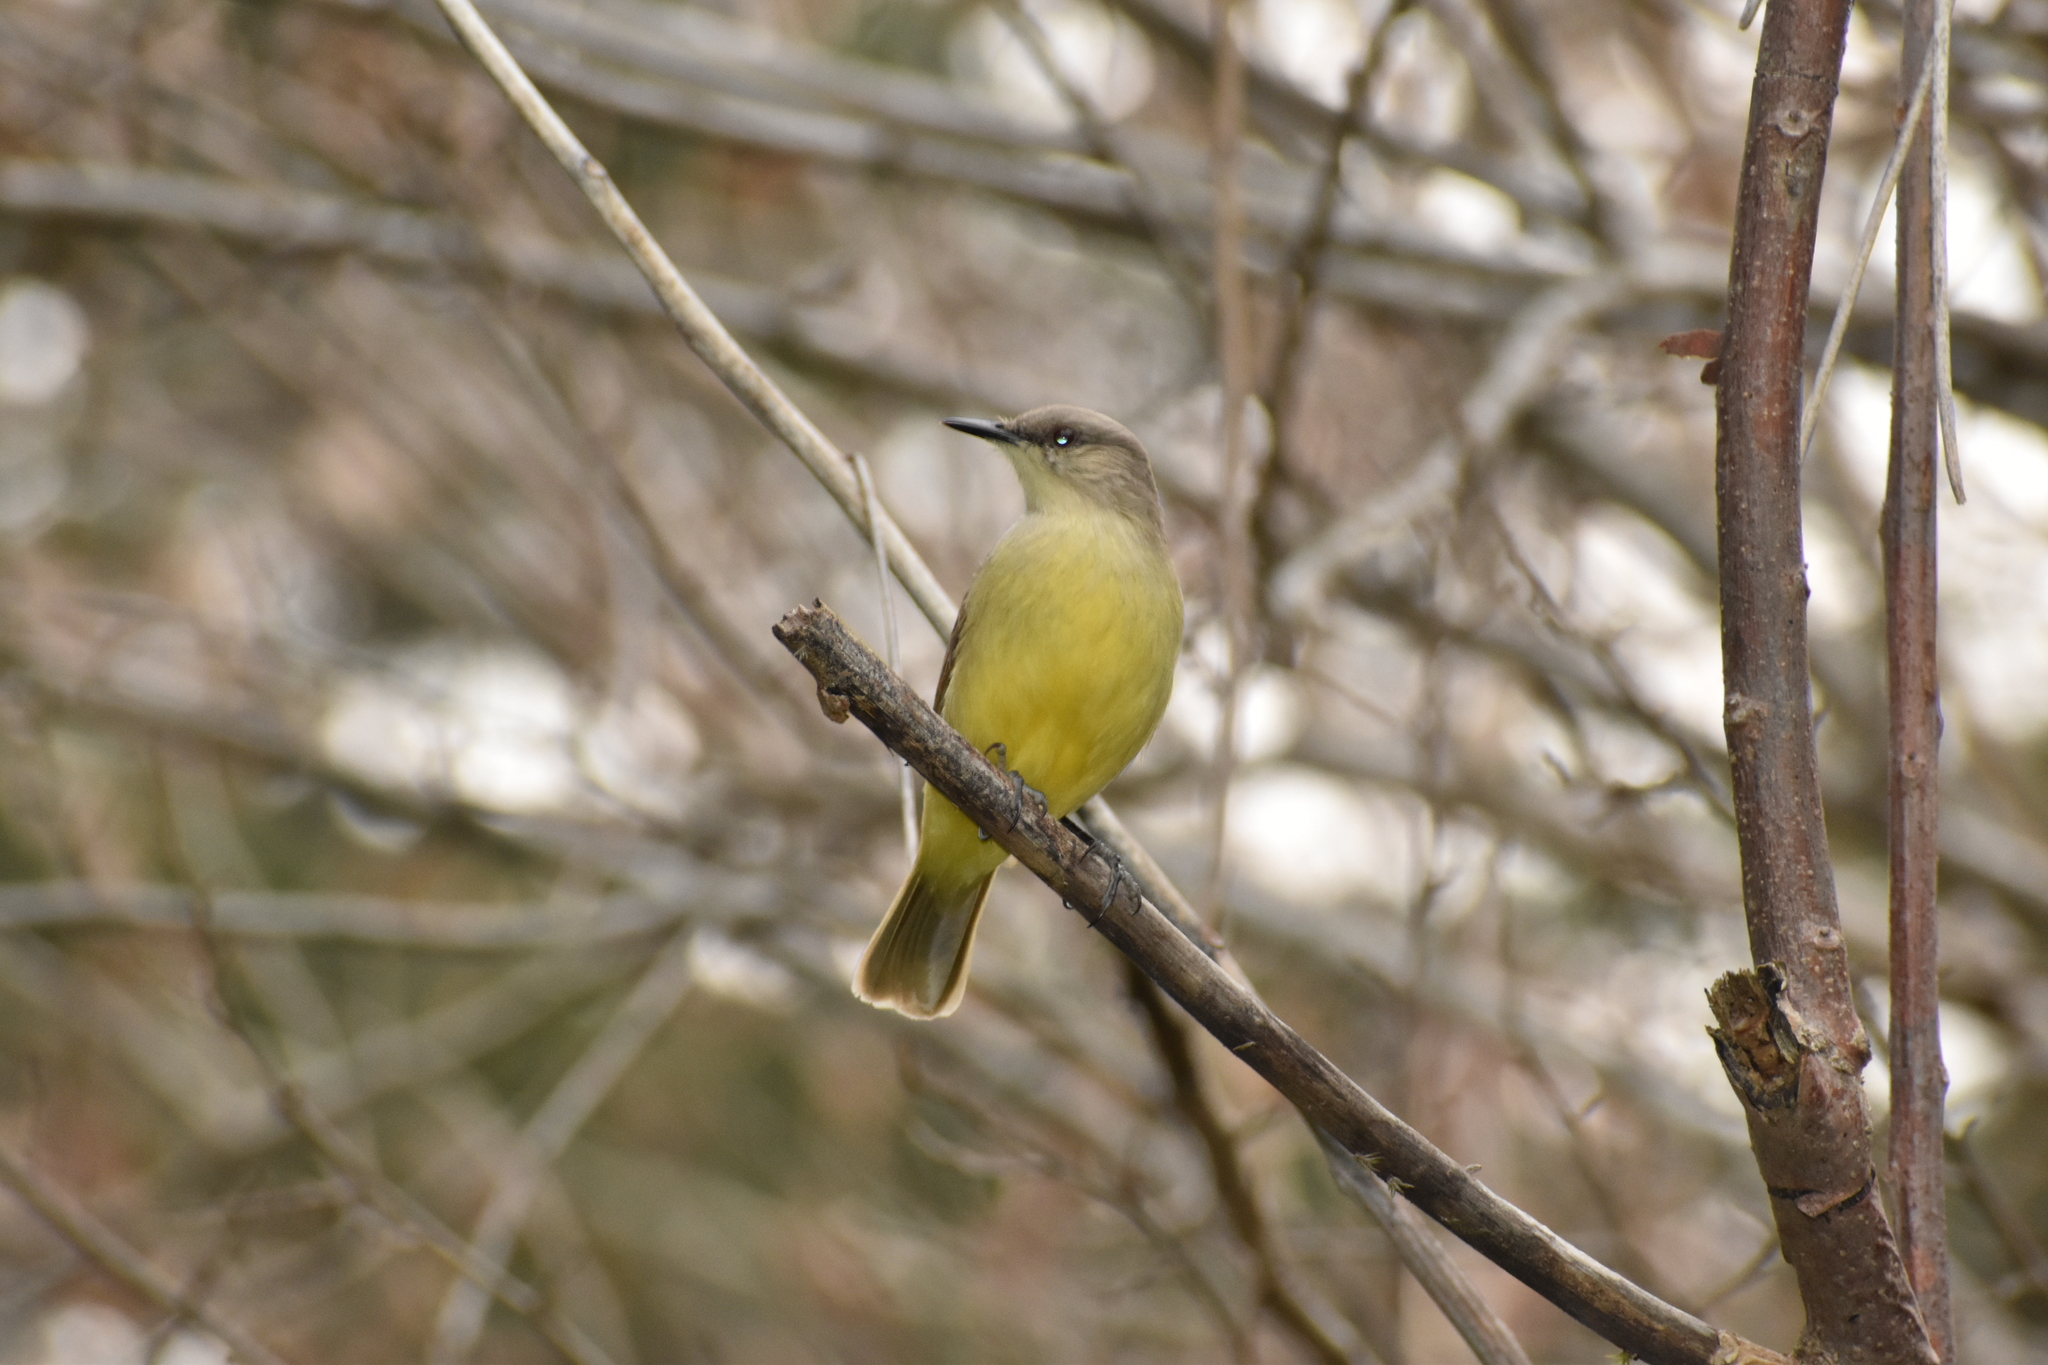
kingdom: Animalia
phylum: Chordata
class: Aves
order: Passeriformes
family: Tyrannidae
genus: Machetornis
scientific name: Machetornis rixosa
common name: Cattle tyrant
